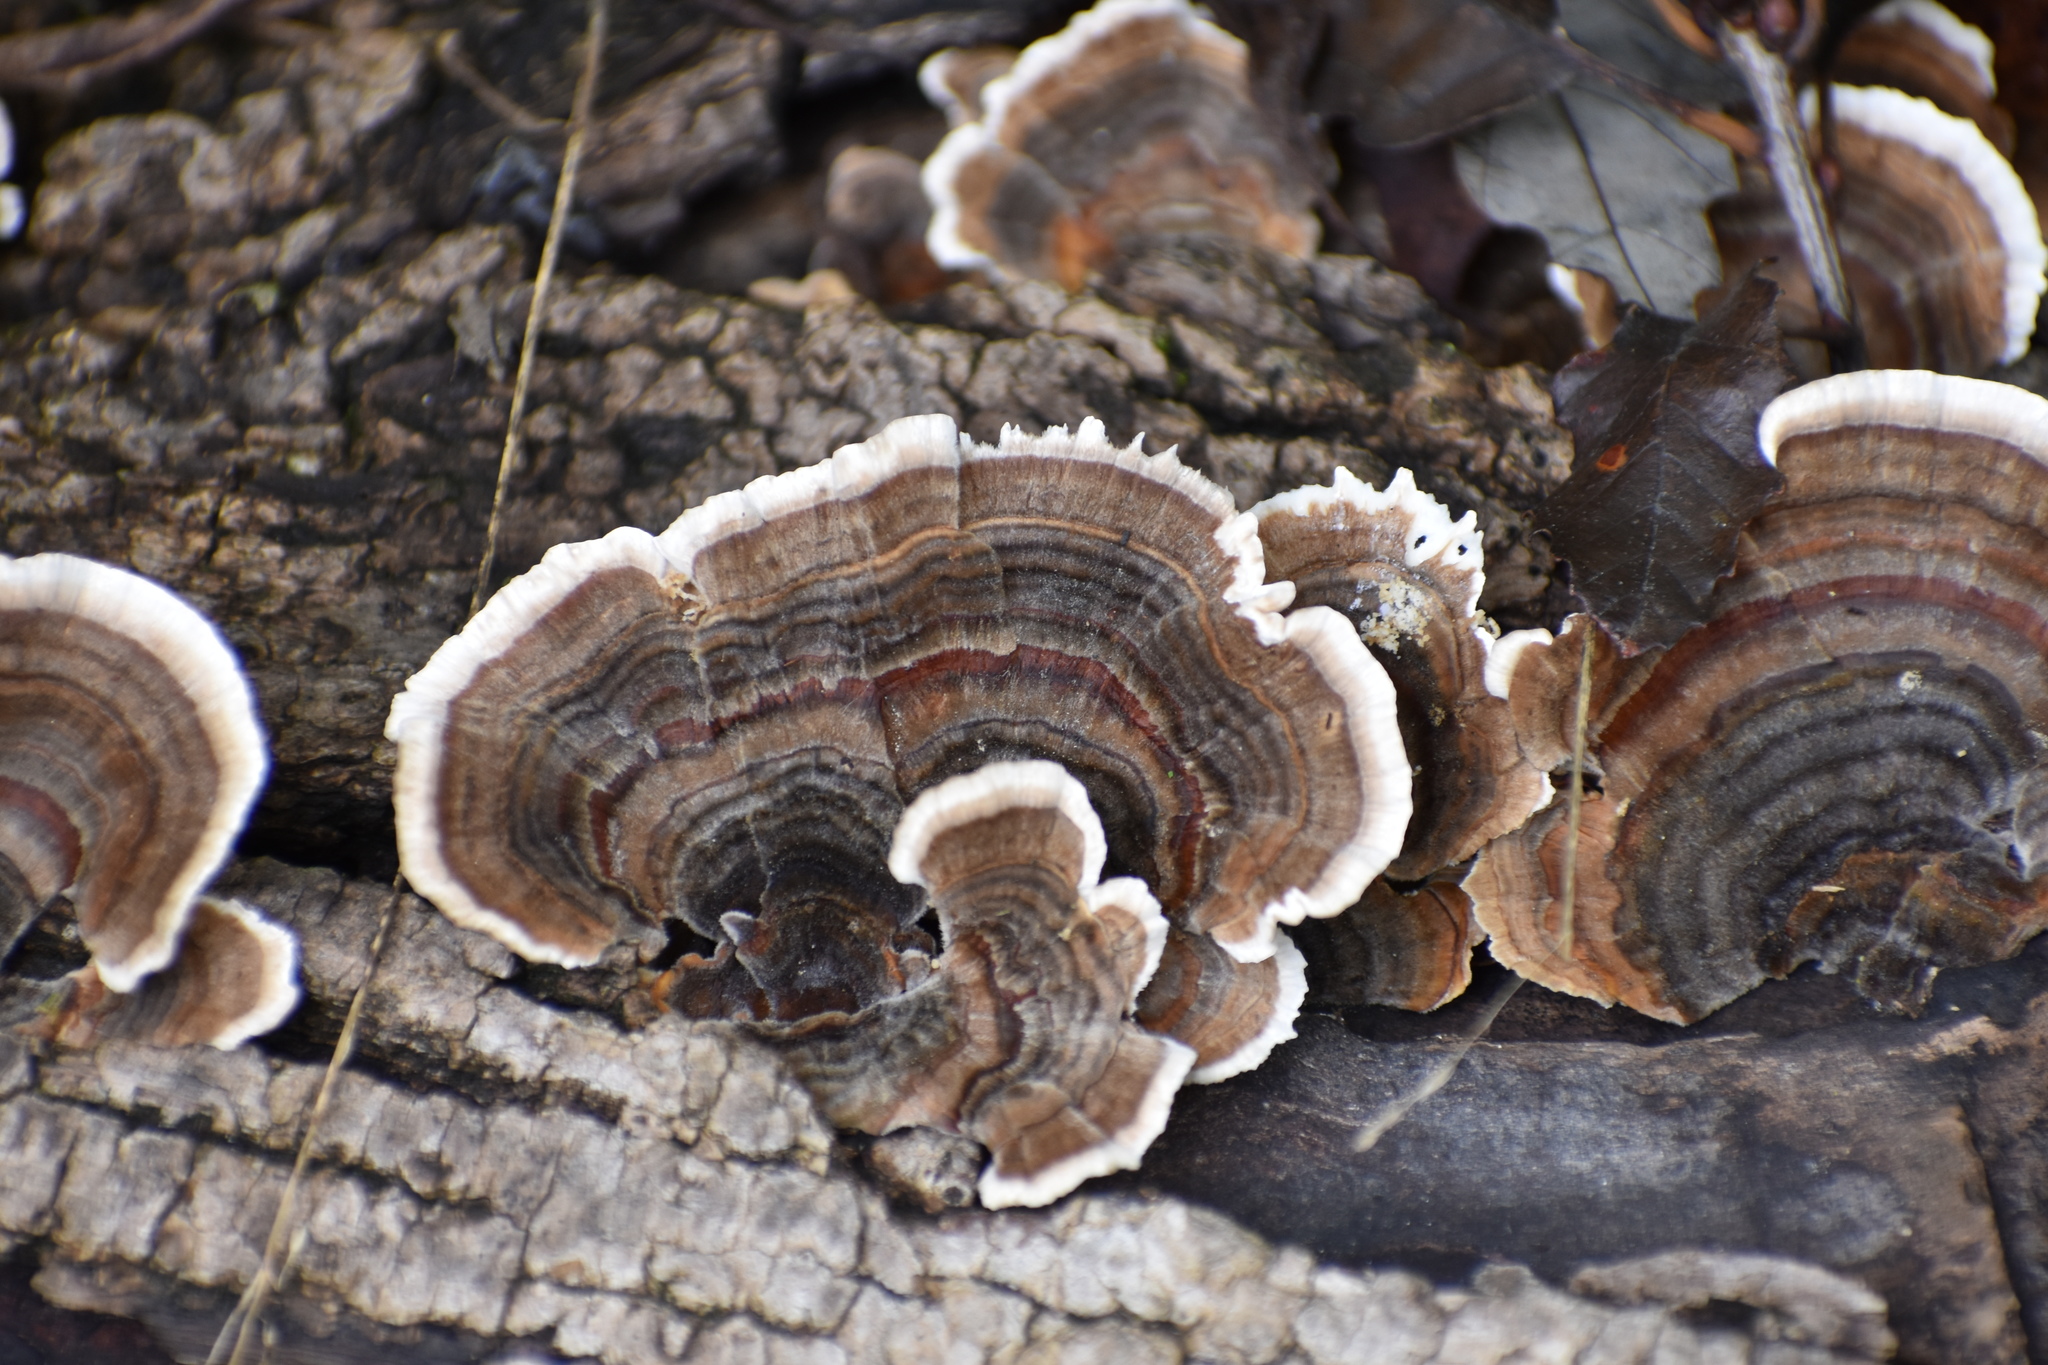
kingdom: Fungi
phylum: Basidiomycota
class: Agaricomycetes
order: Polyporales
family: Polyporaceae
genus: Trametes
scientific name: Trametes versicolor
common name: Turkeytail
